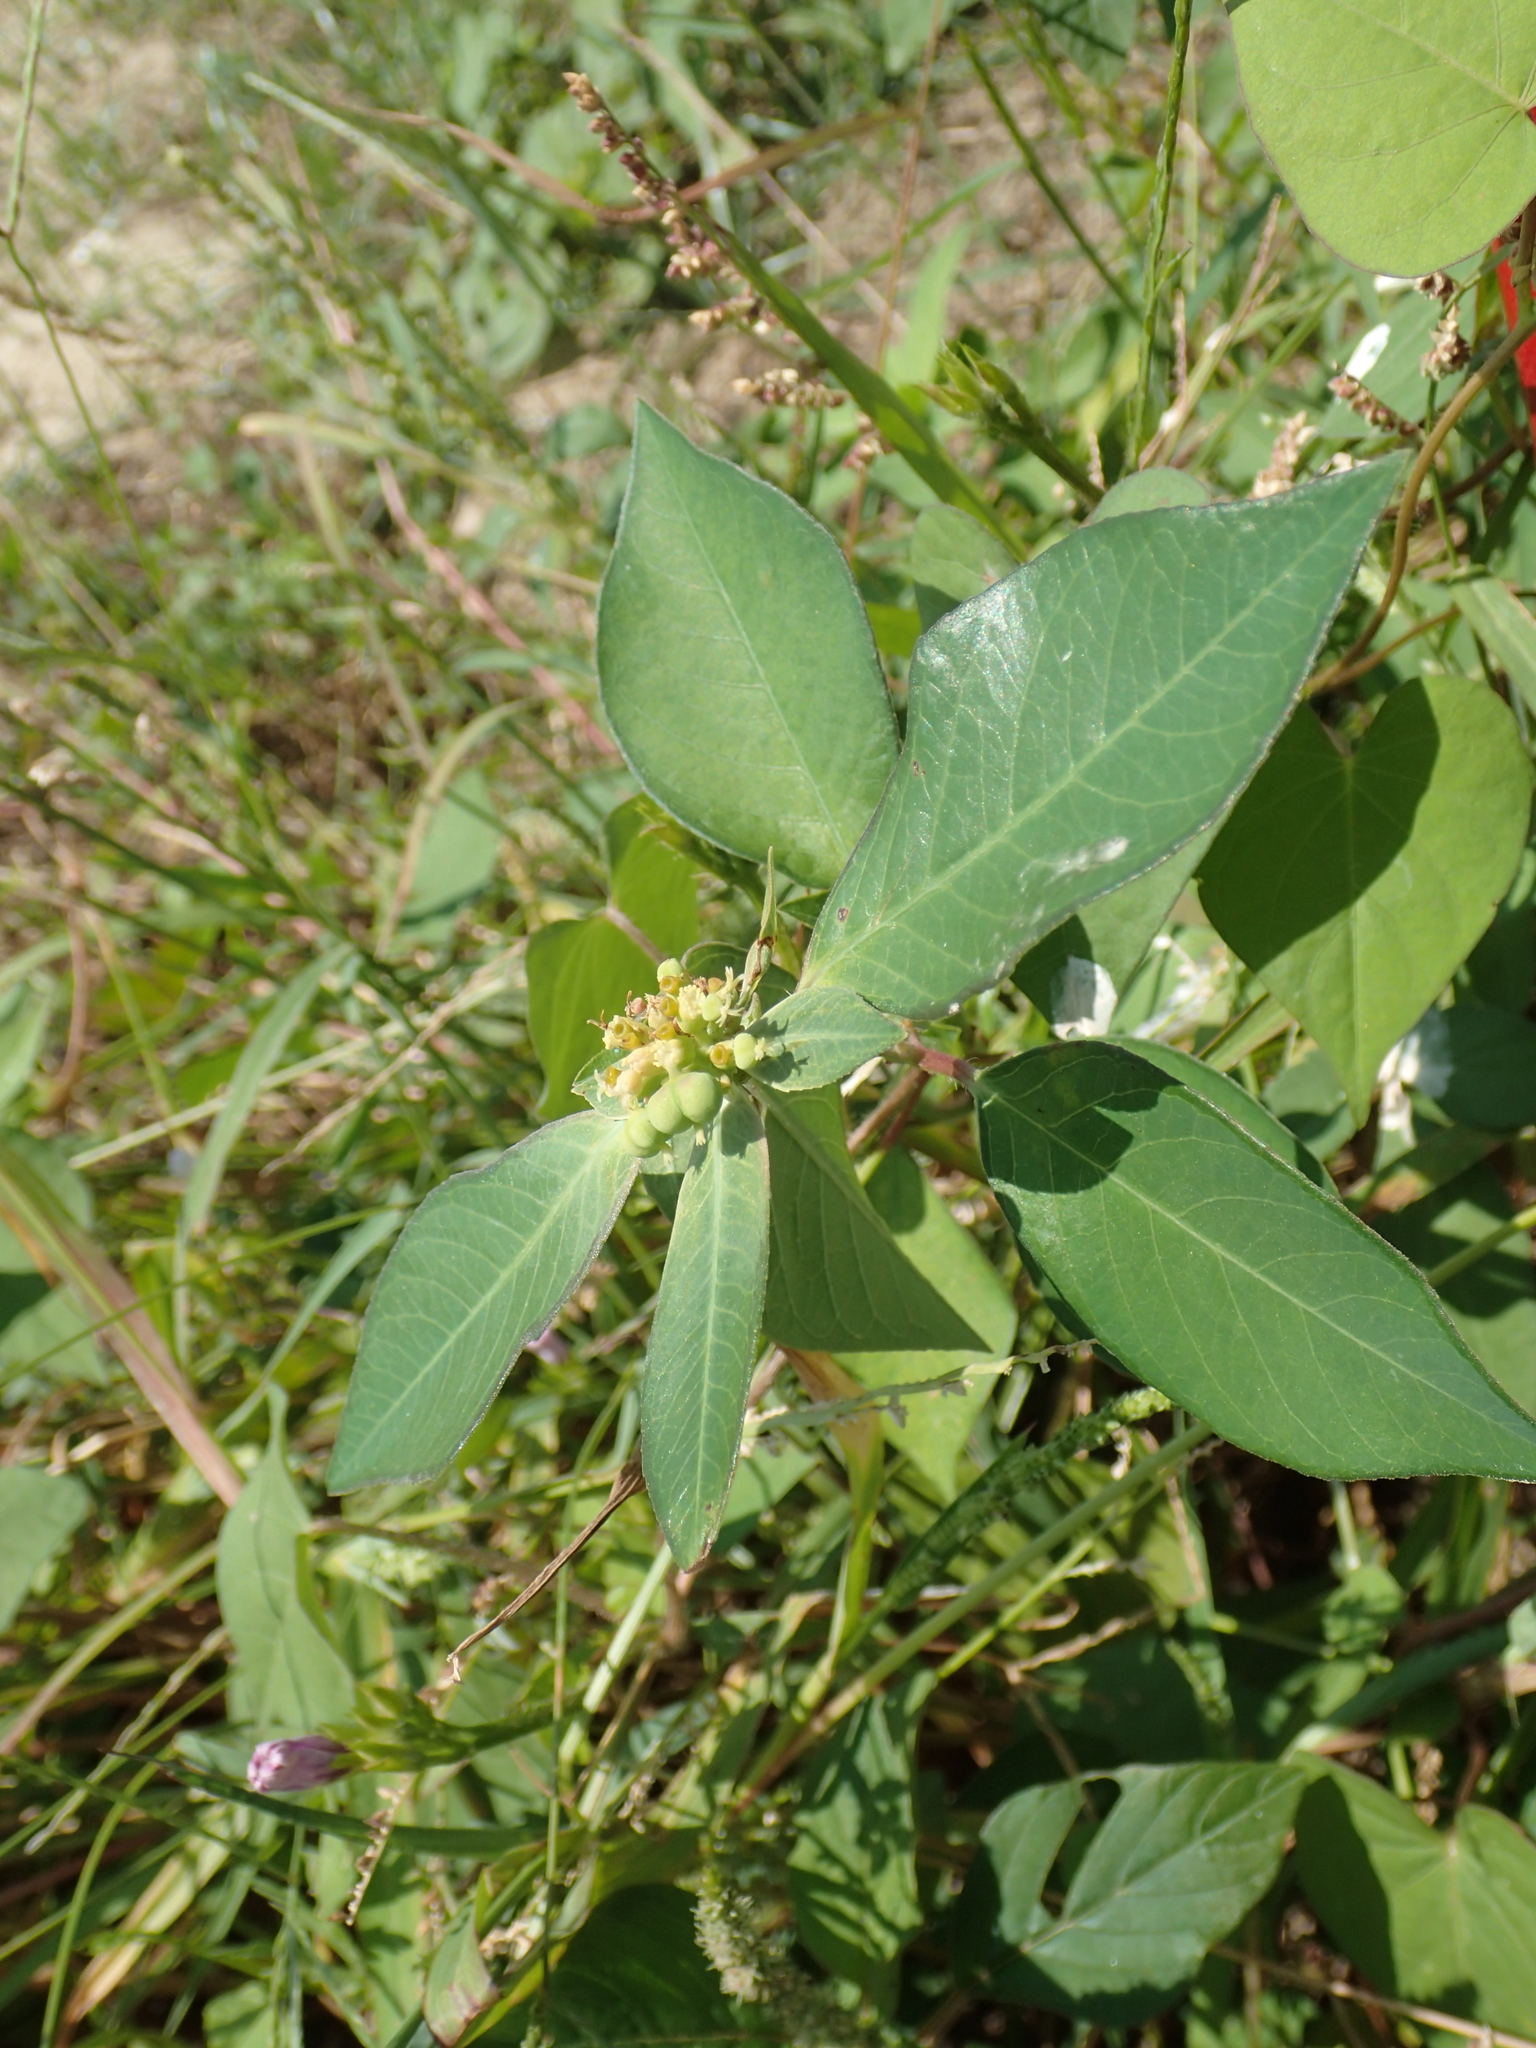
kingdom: Plantae
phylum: Tracheophyta
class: Magnoliopsida
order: Malpighiales
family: Euphorbiaceae
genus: Euphorbia
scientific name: Euphorbia heterophylla
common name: Mexican fireplant
